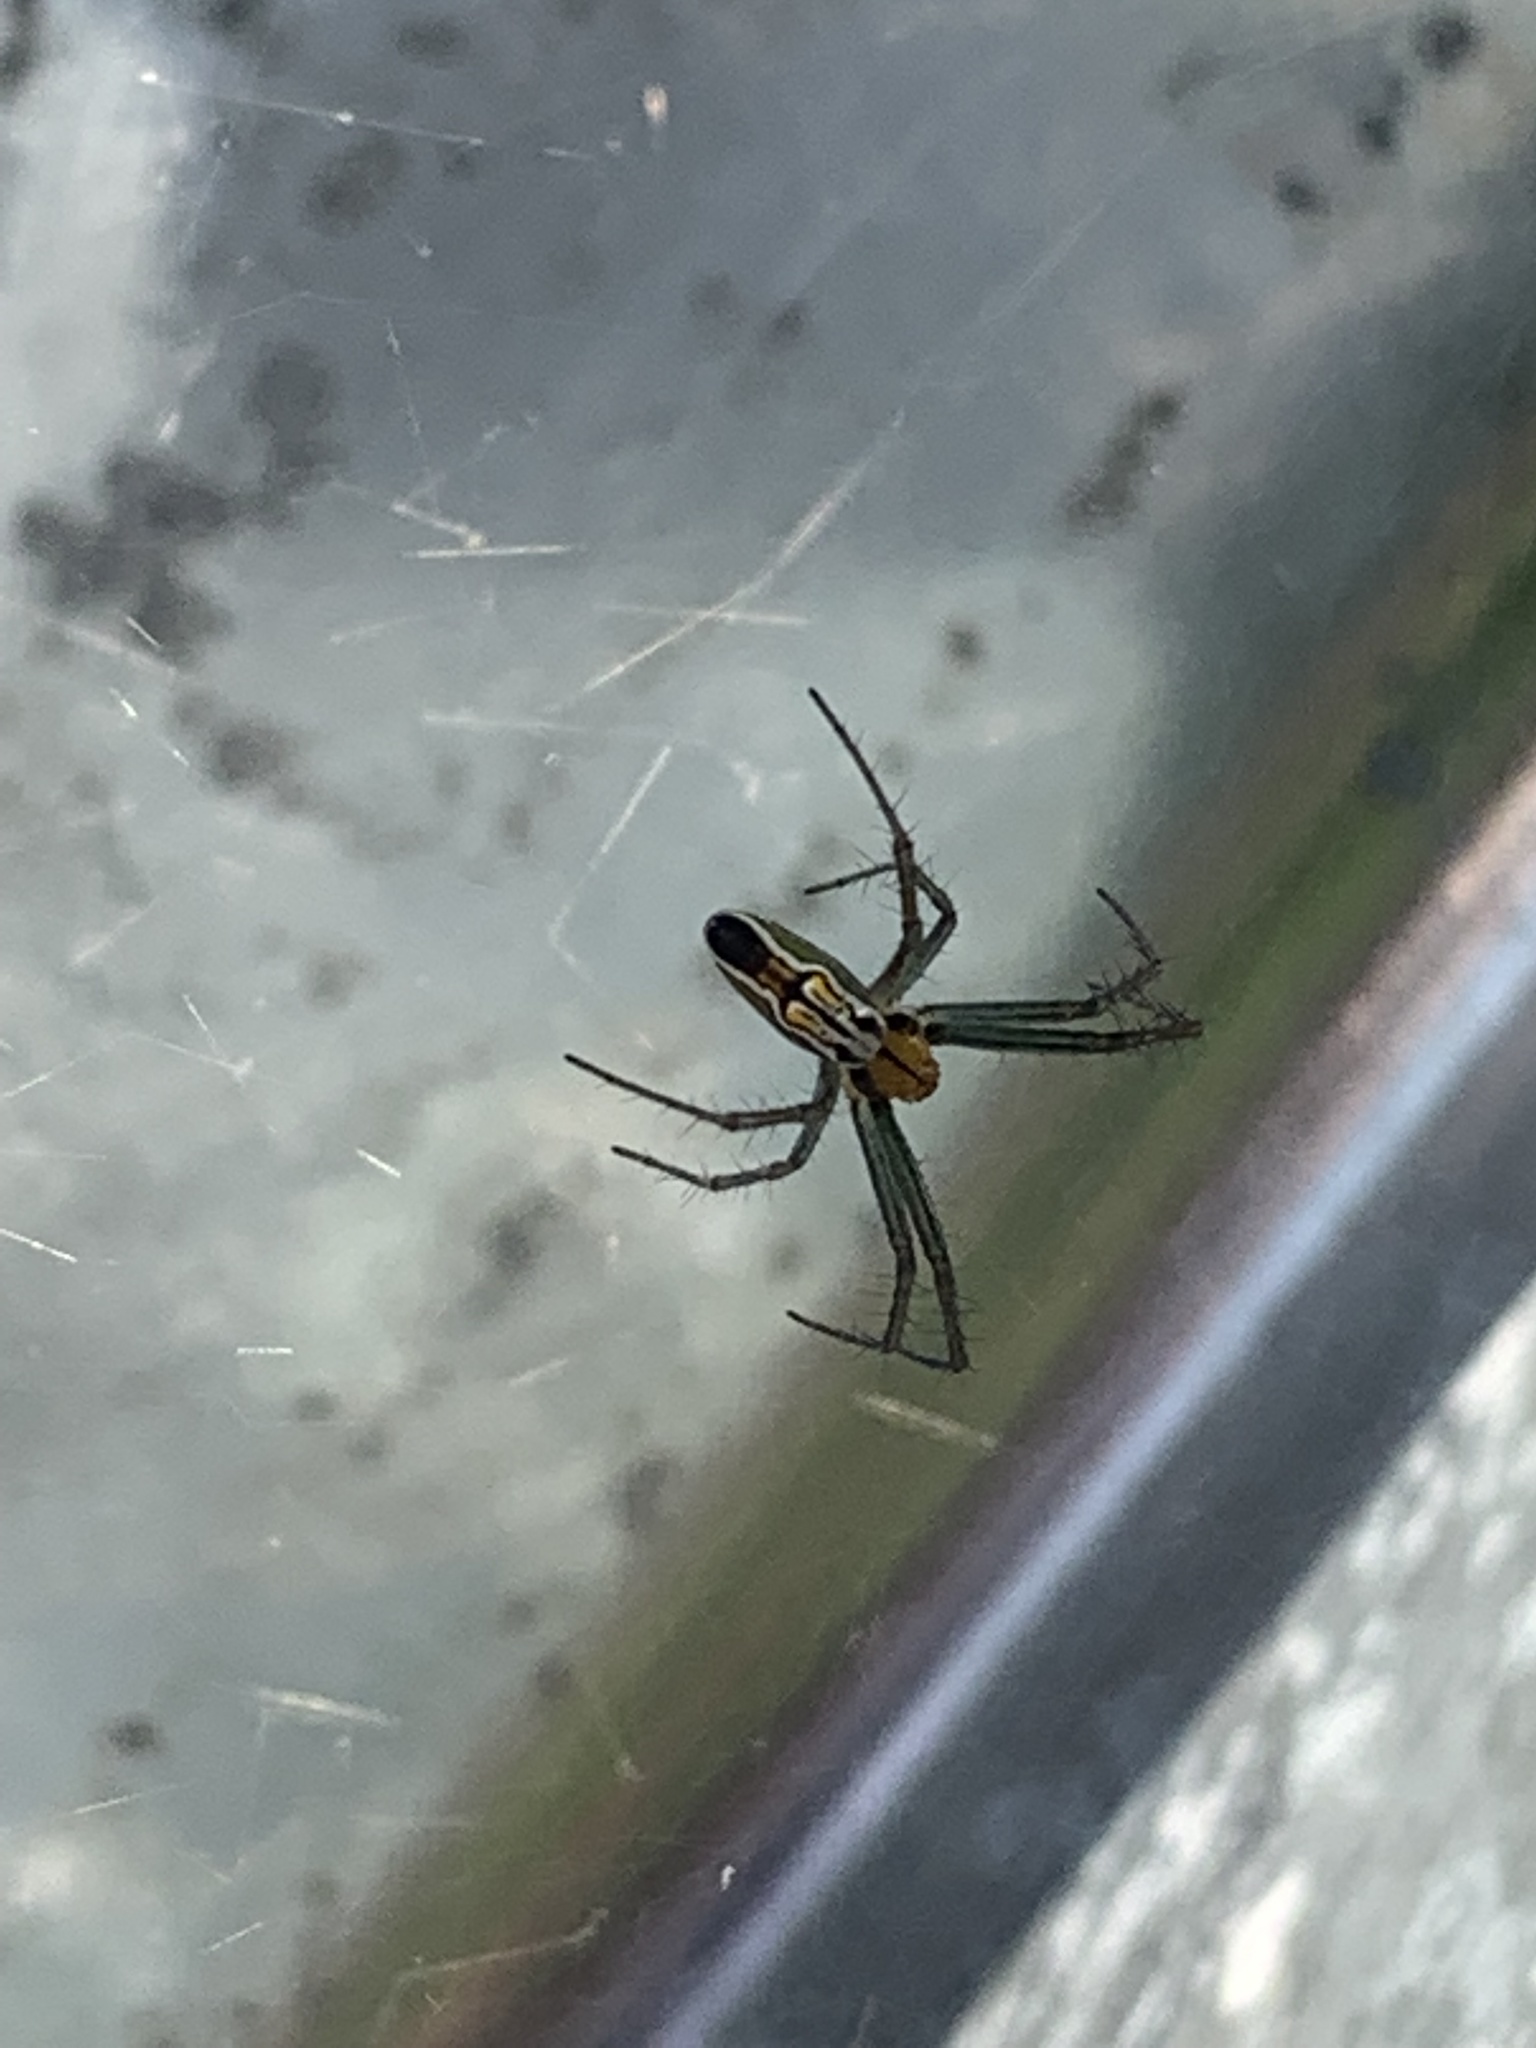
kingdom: Animalia
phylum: Arthropoda
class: Arachnida
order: Araneae
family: Araneidae
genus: Mecynogea
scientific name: Mecynogea lemniscata
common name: Orb weavers
